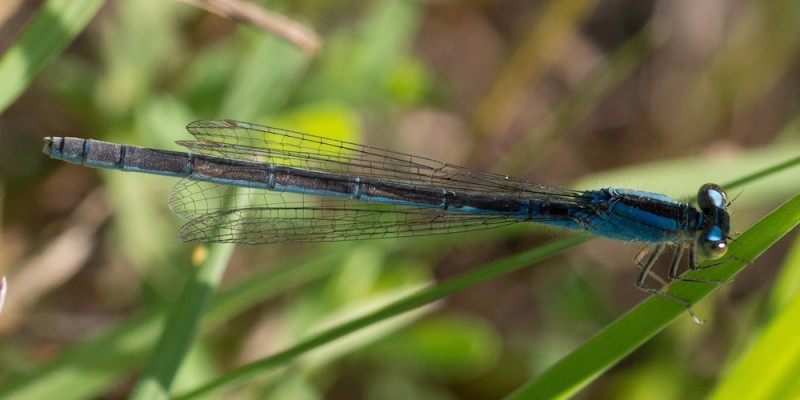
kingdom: Animalia
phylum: Arthropoda
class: Insecta
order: Odonata
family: Coenagrionidae
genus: Ischnura
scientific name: Ischnura pumilio
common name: Scarce blue-tailed damselfly
